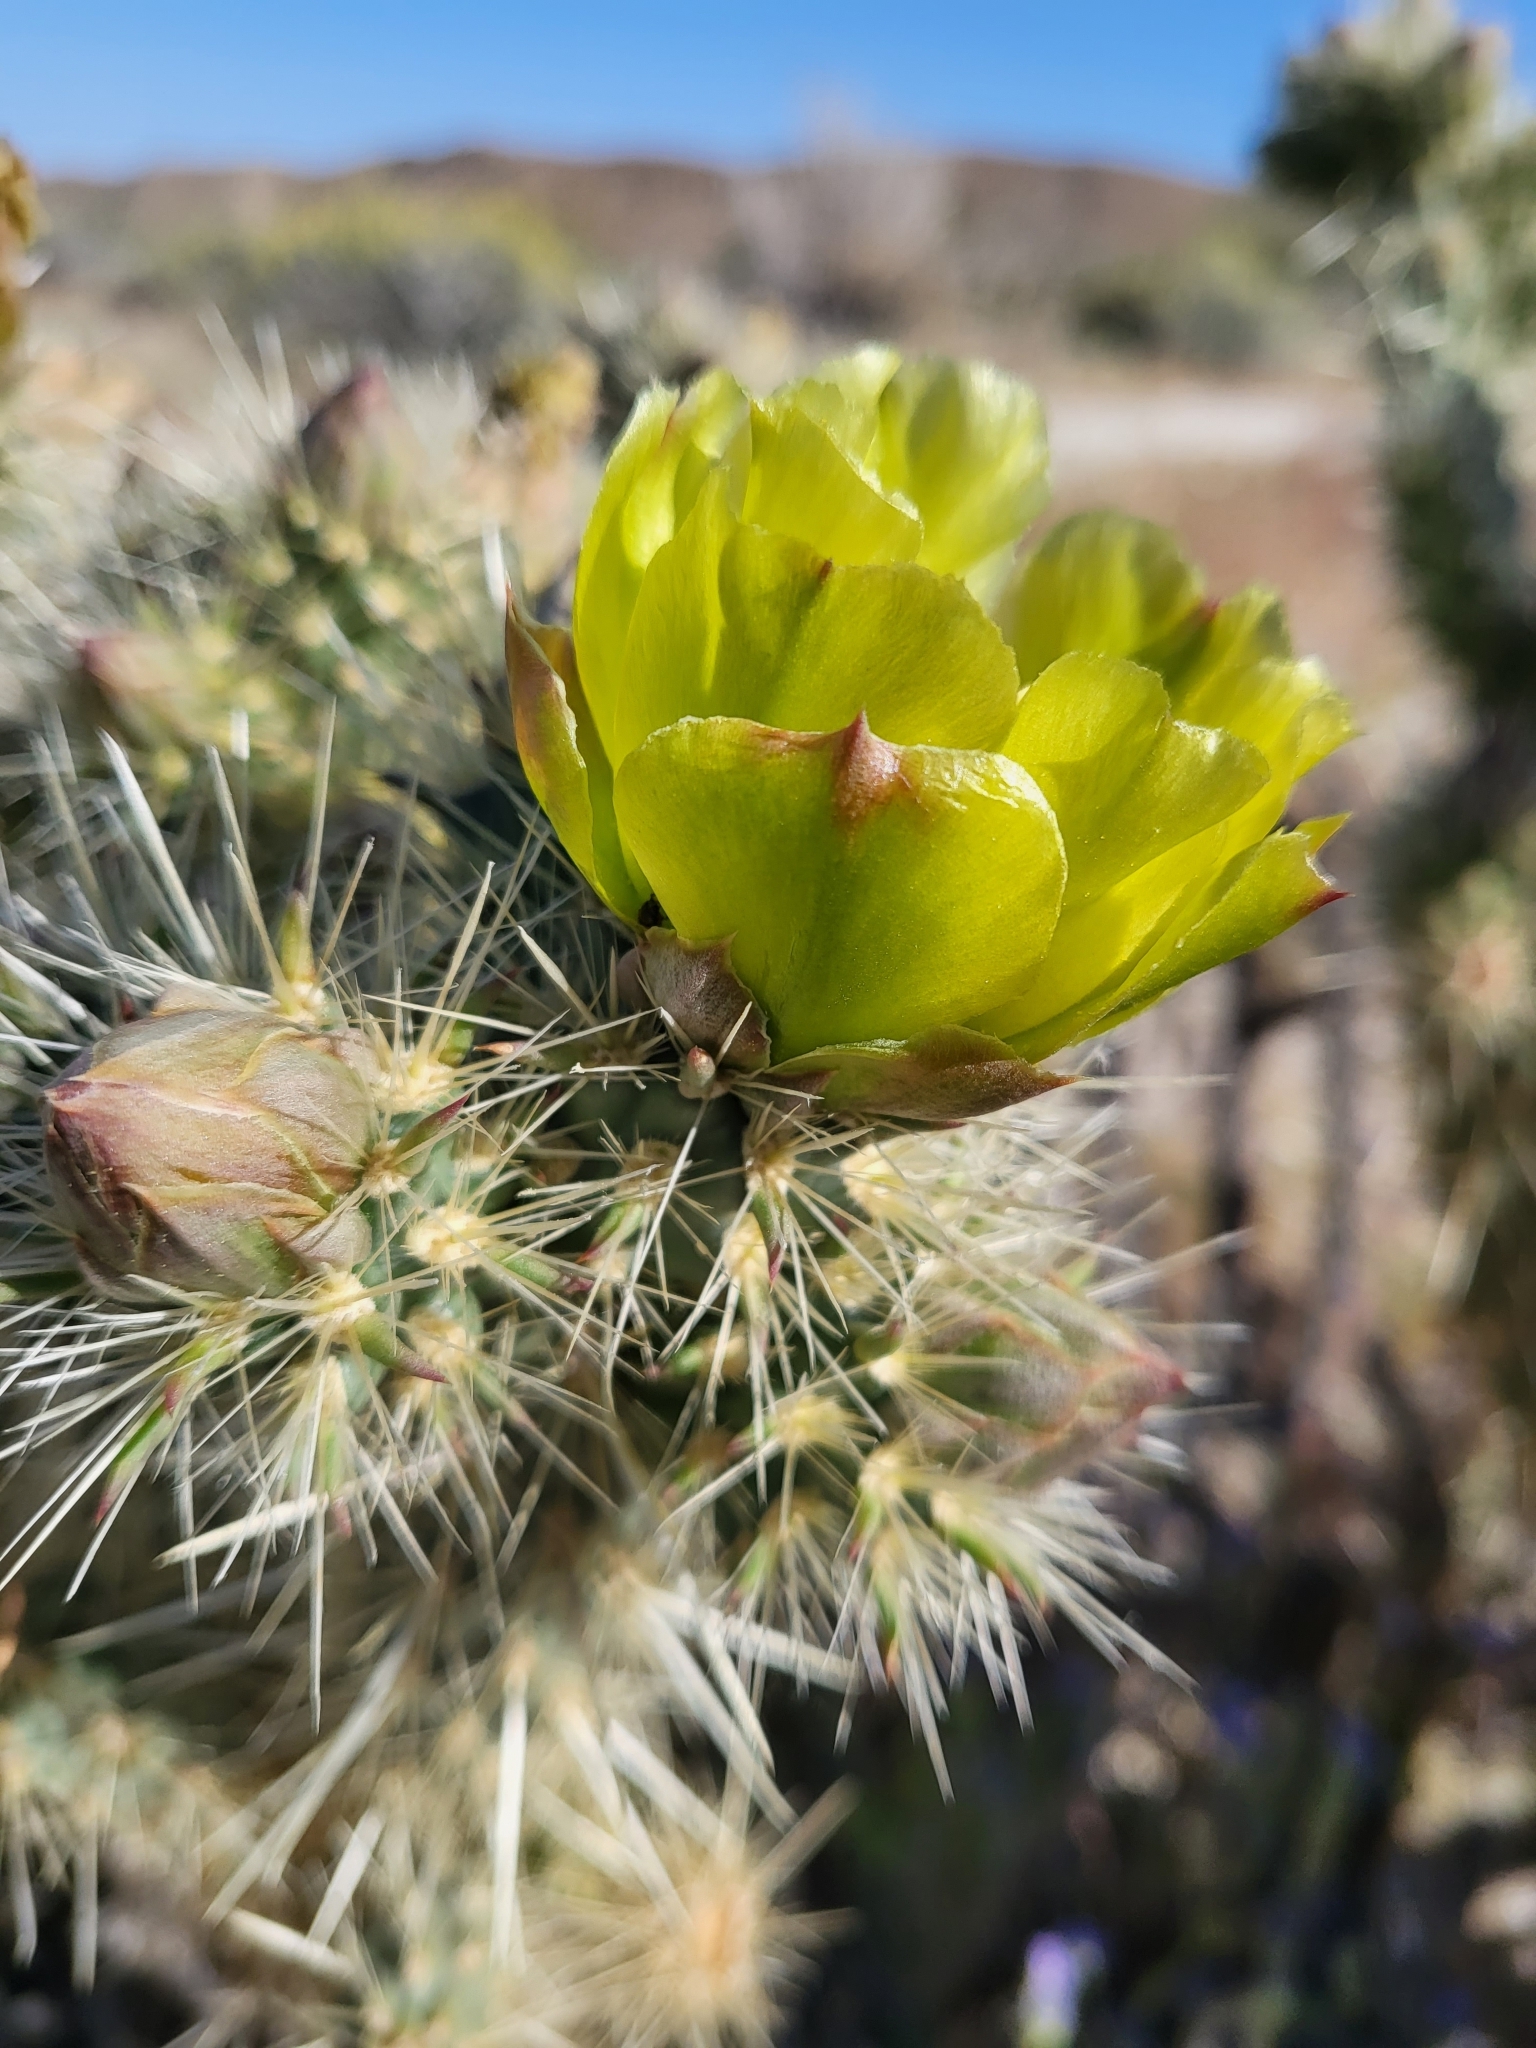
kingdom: Plantae
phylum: Tracheophyta
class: Magnoliopsida
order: Caryophyllales
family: Cactaceae
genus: Cylindropuntia
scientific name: Cylindropuntia ganderi
